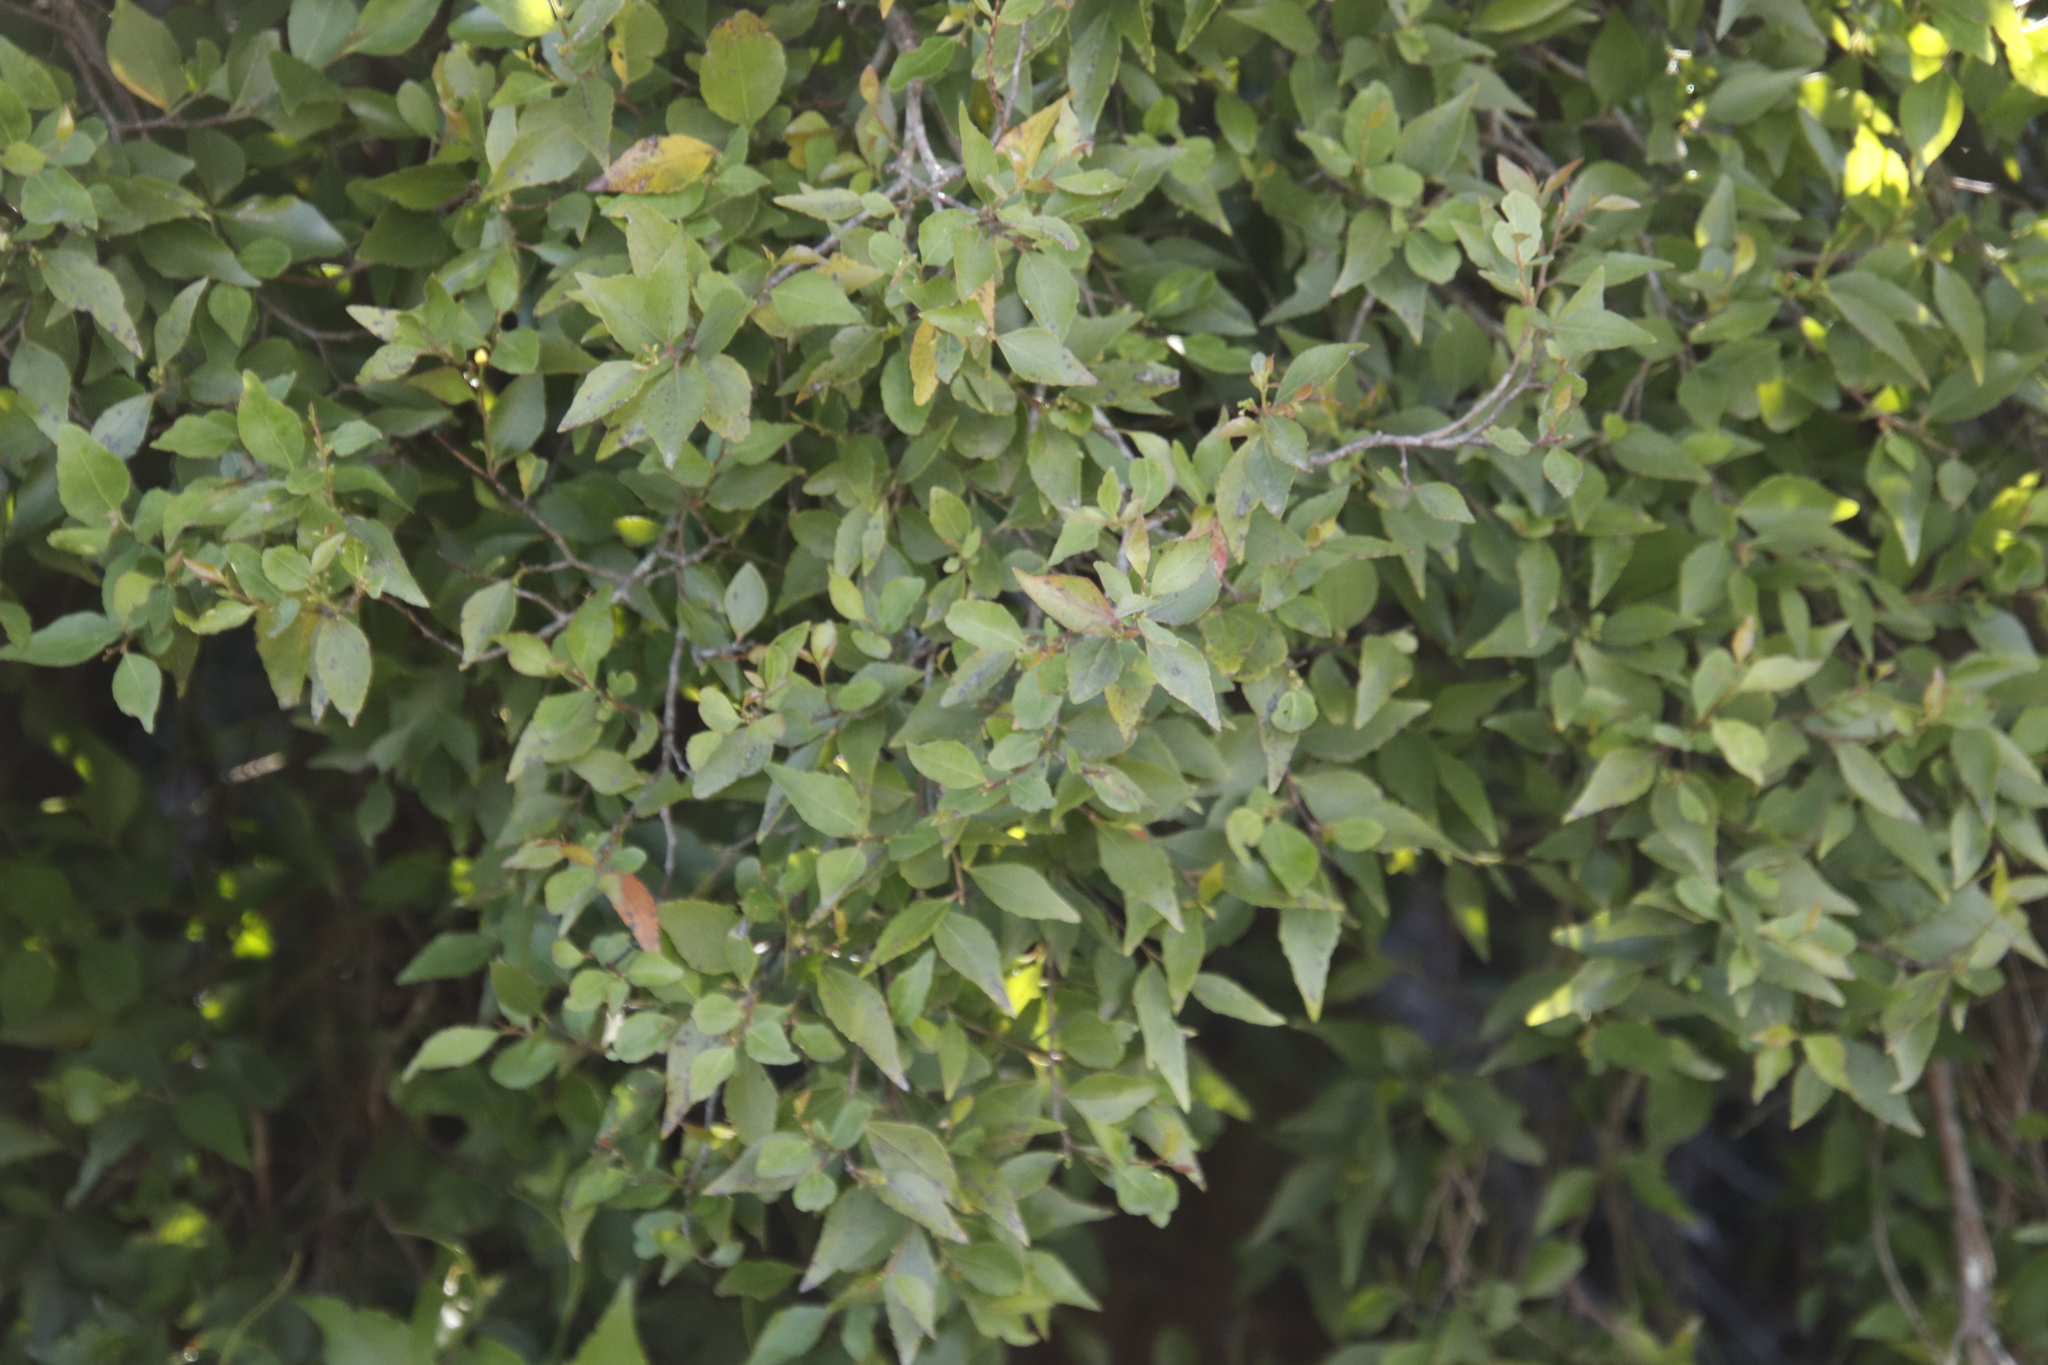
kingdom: Plantae
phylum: Tracheophyta
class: Magnoliopsida
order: Celastrales
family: Celastraceae
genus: Gymnosporia
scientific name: Gymnosporia acuminata
